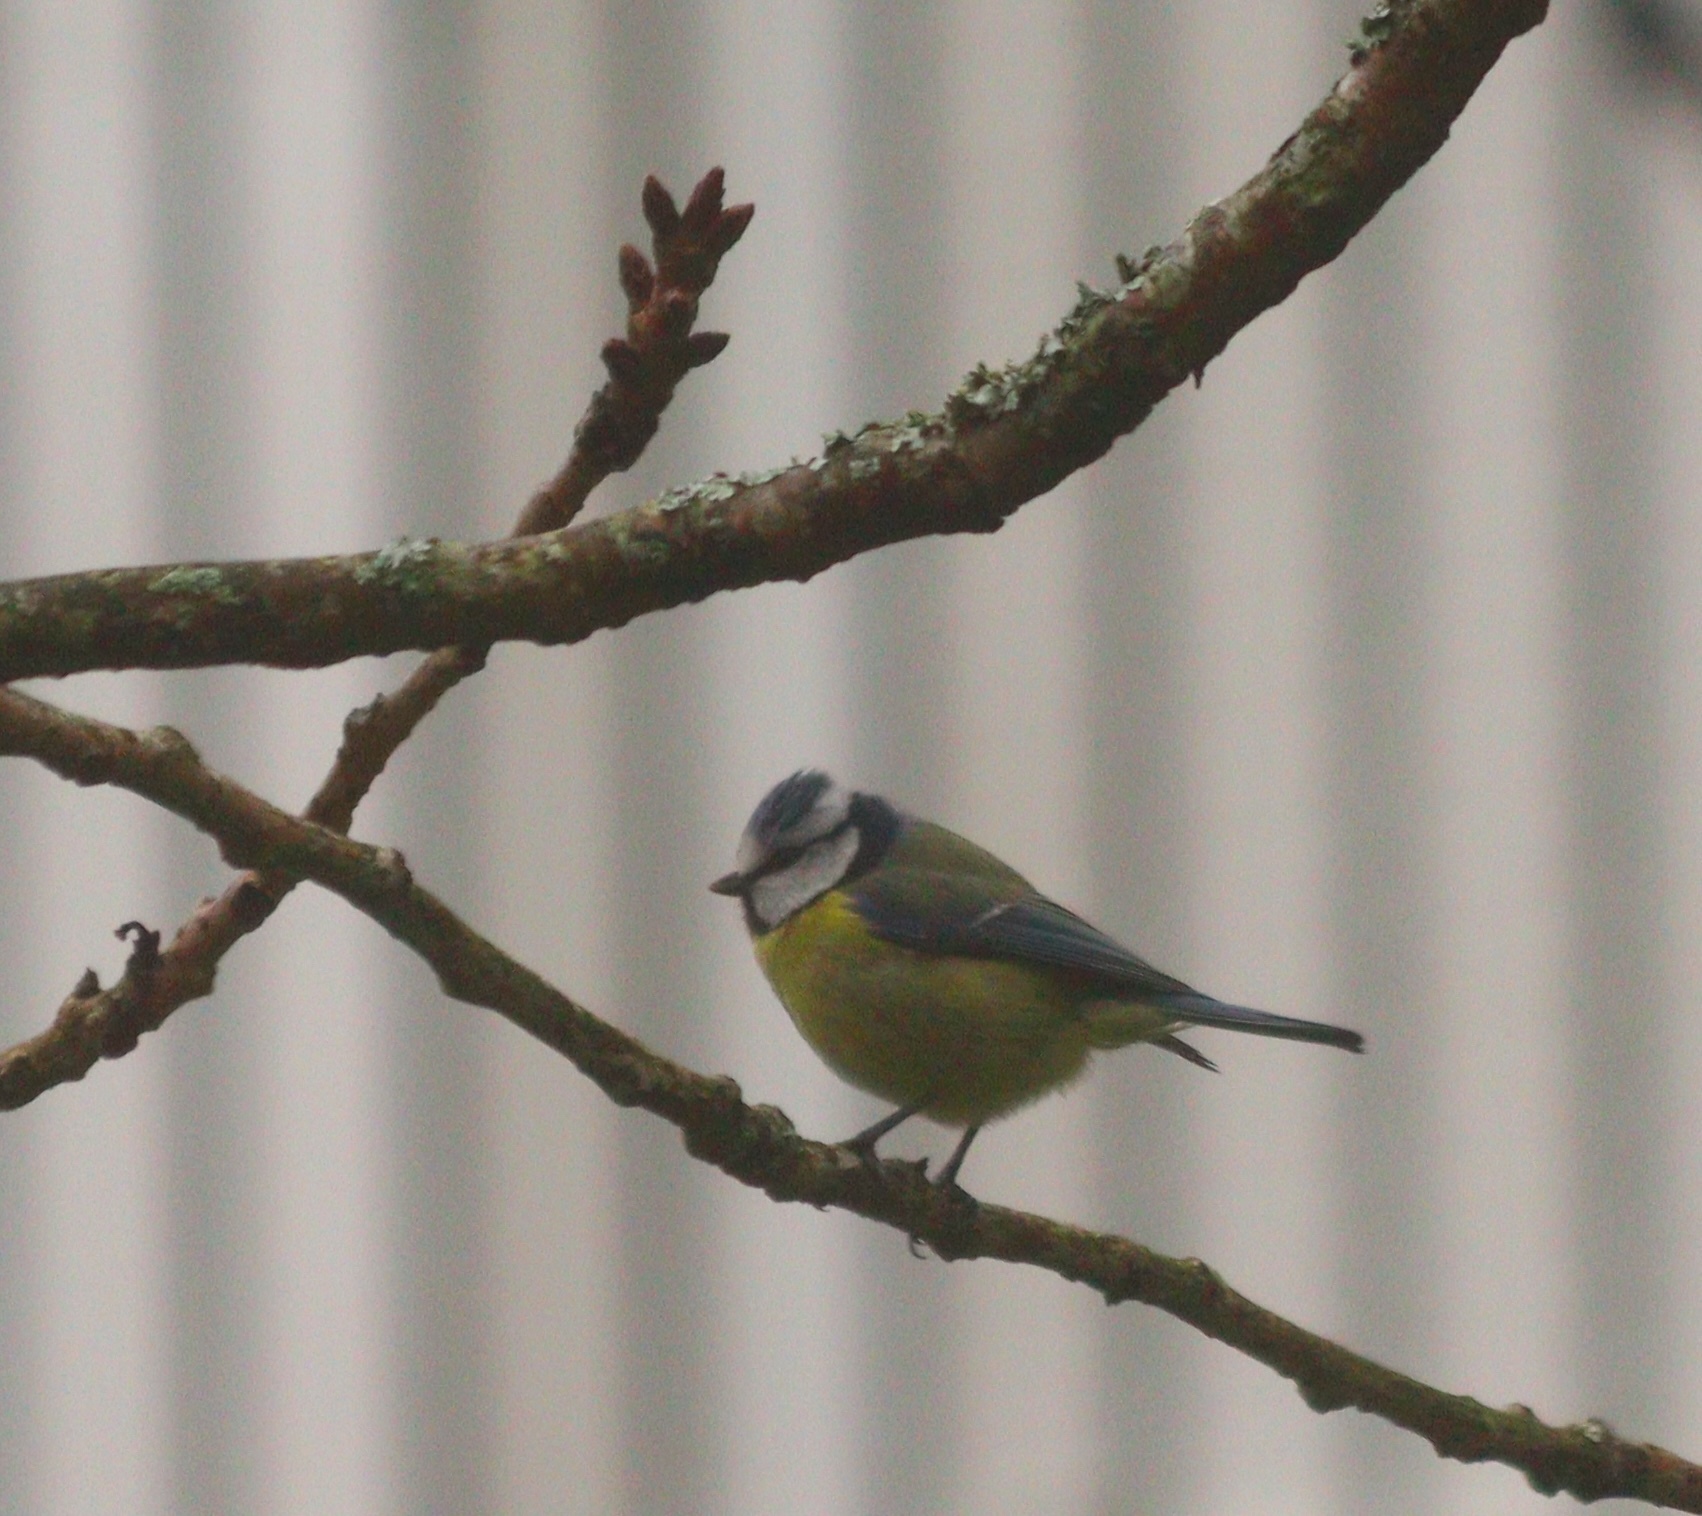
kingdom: Animalia
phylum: Chordata
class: Aves
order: Passeriformes
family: Paridae
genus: Cyanistes
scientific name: Cyanistes caeruleus
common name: Eurasian blue tit
